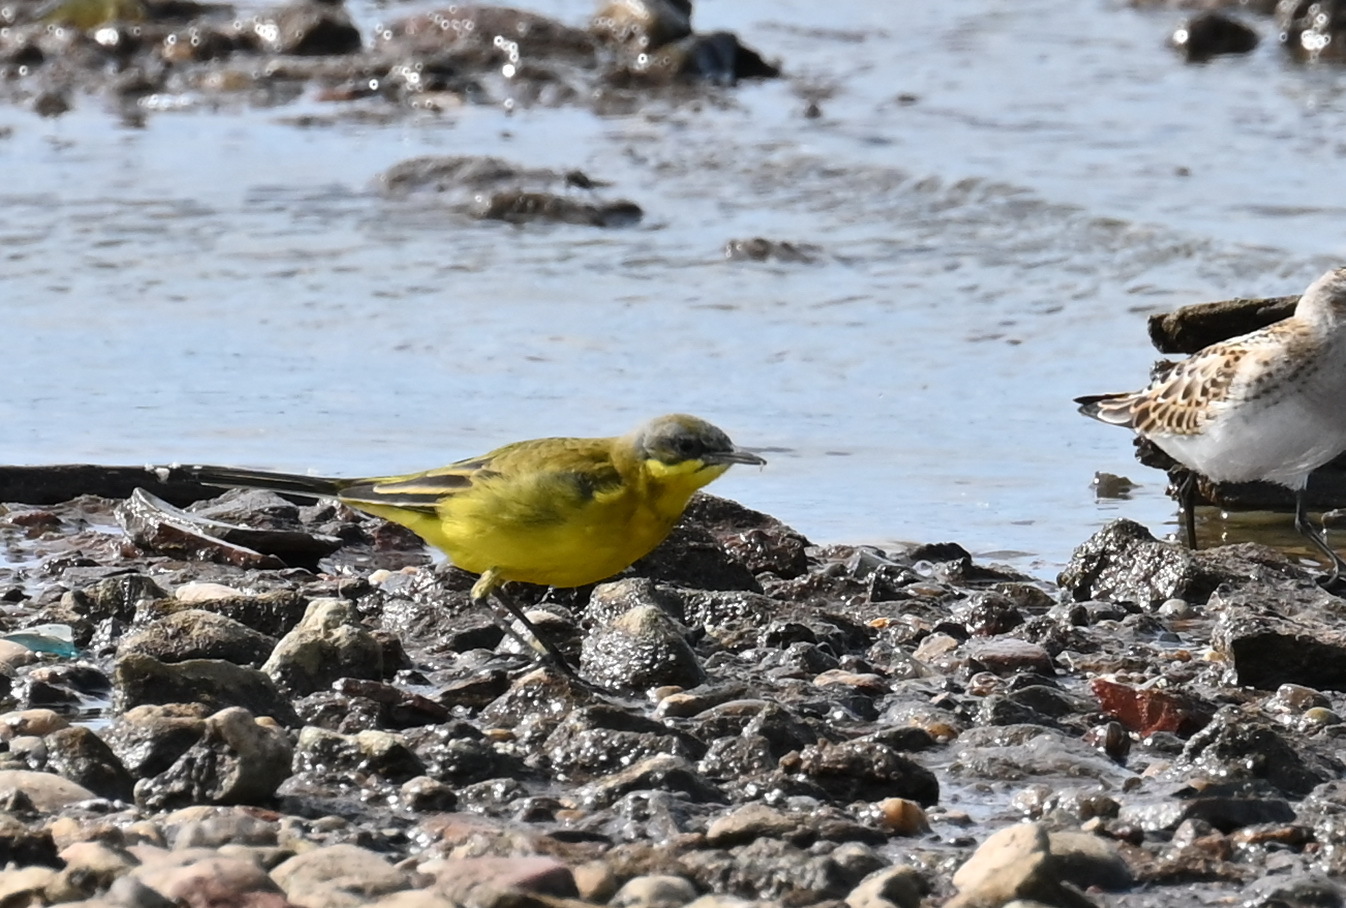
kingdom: Animalia
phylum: Chordata
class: Aves
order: Passeriformes
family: Motacillidae
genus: Motacilla
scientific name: Motacilla flava
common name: Western yellow wagtail
